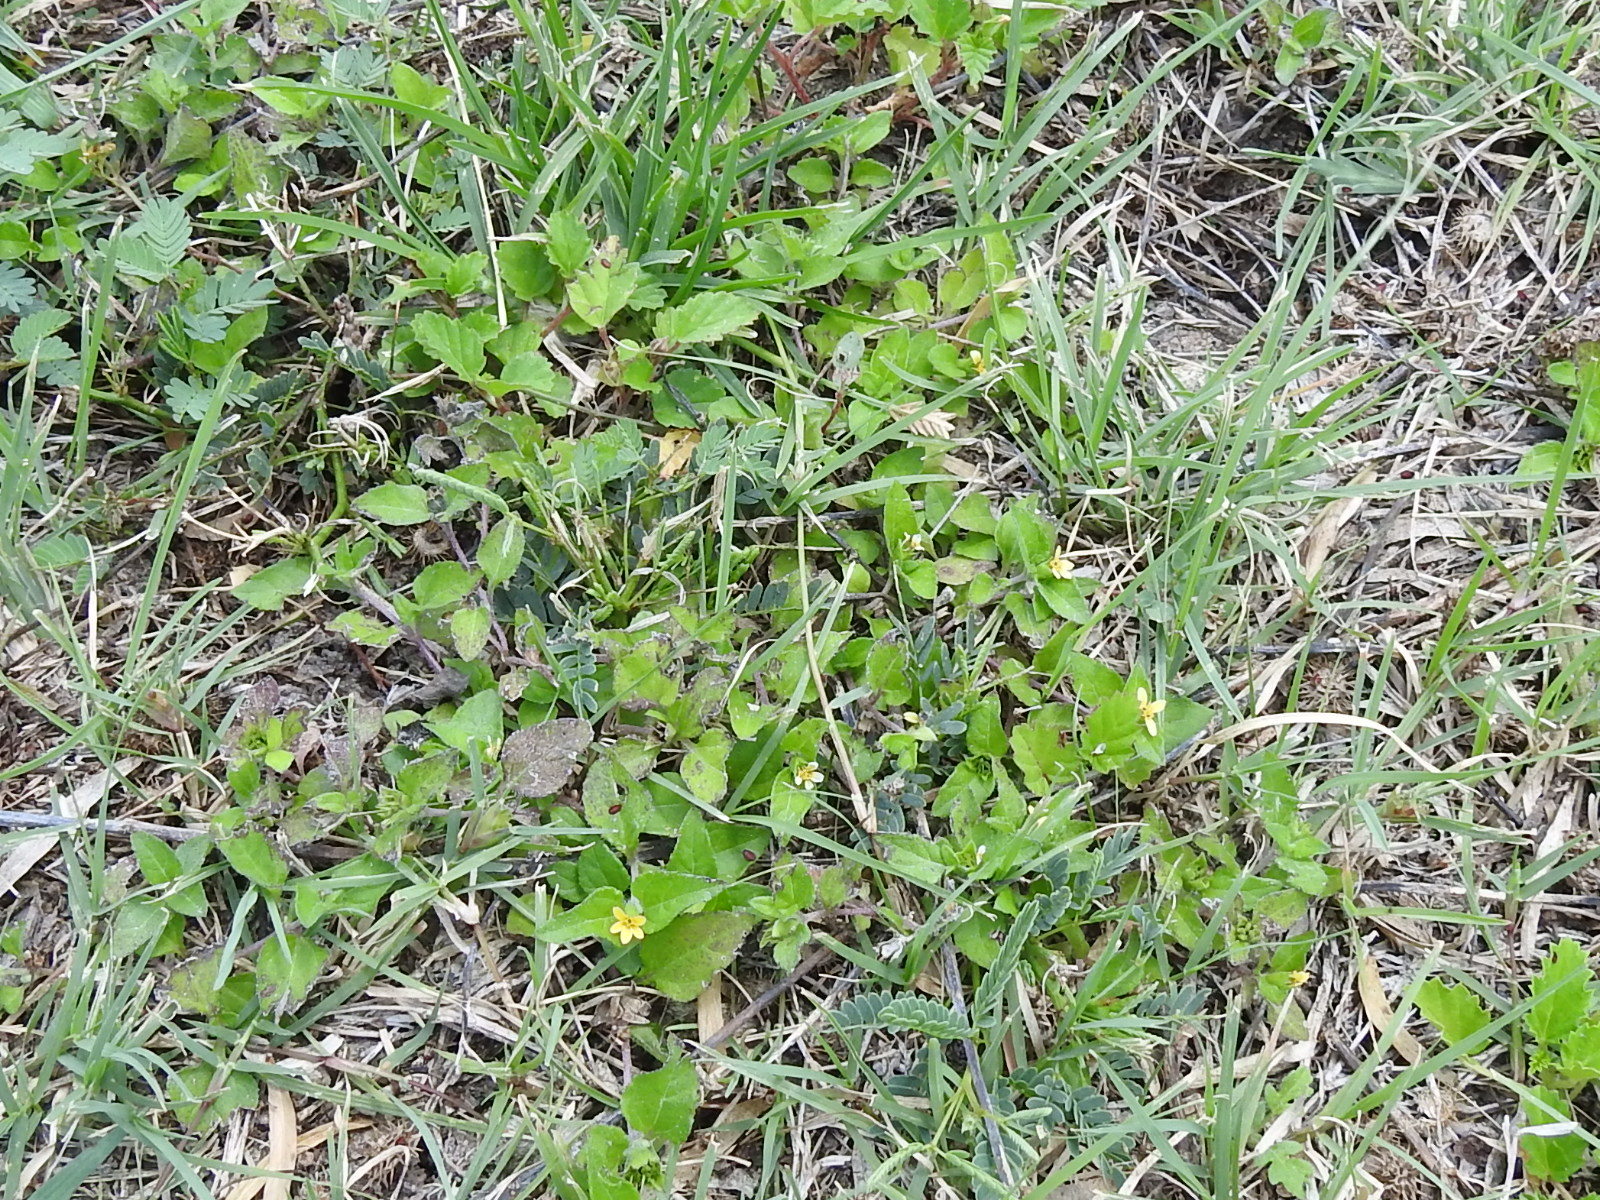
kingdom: Plantae
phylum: Tracheophyta
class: Magnoliopsida
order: Asterales
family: Asteraceae
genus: Calyptocarpus
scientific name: Calyptocarpus vialis
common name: Straggler daisy
